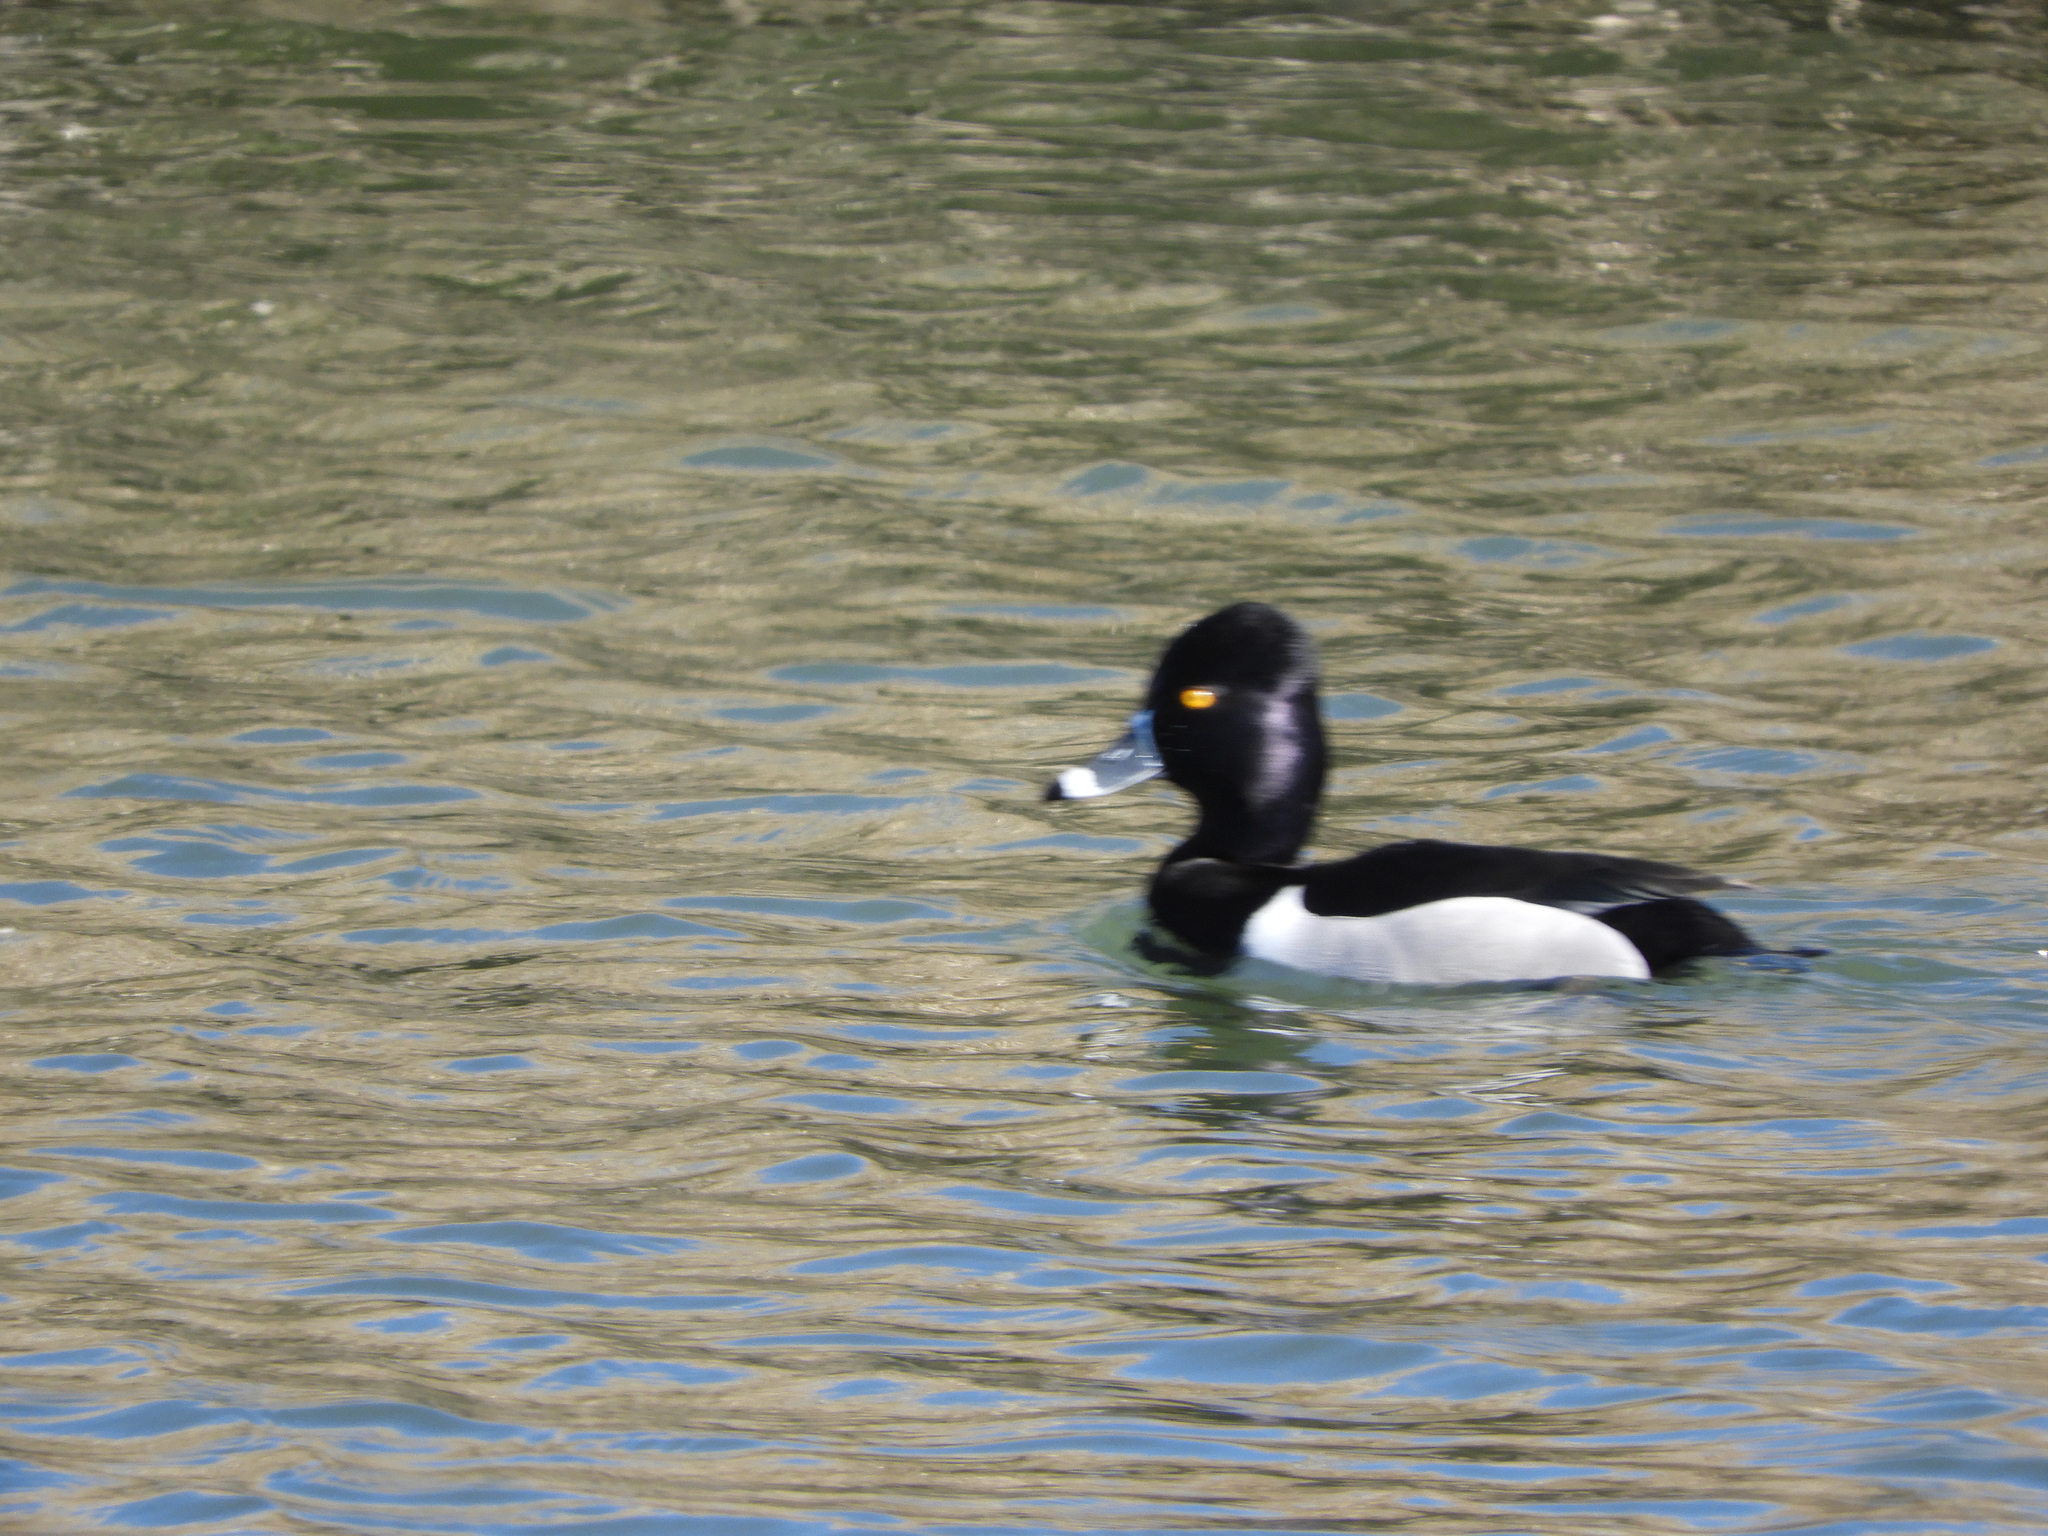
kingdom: Animalia
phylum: Chordata
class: Aves
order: Anseriformes
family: Anatidae
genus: Aythya
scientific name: Aythya collaris
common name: Ring-necked duck
